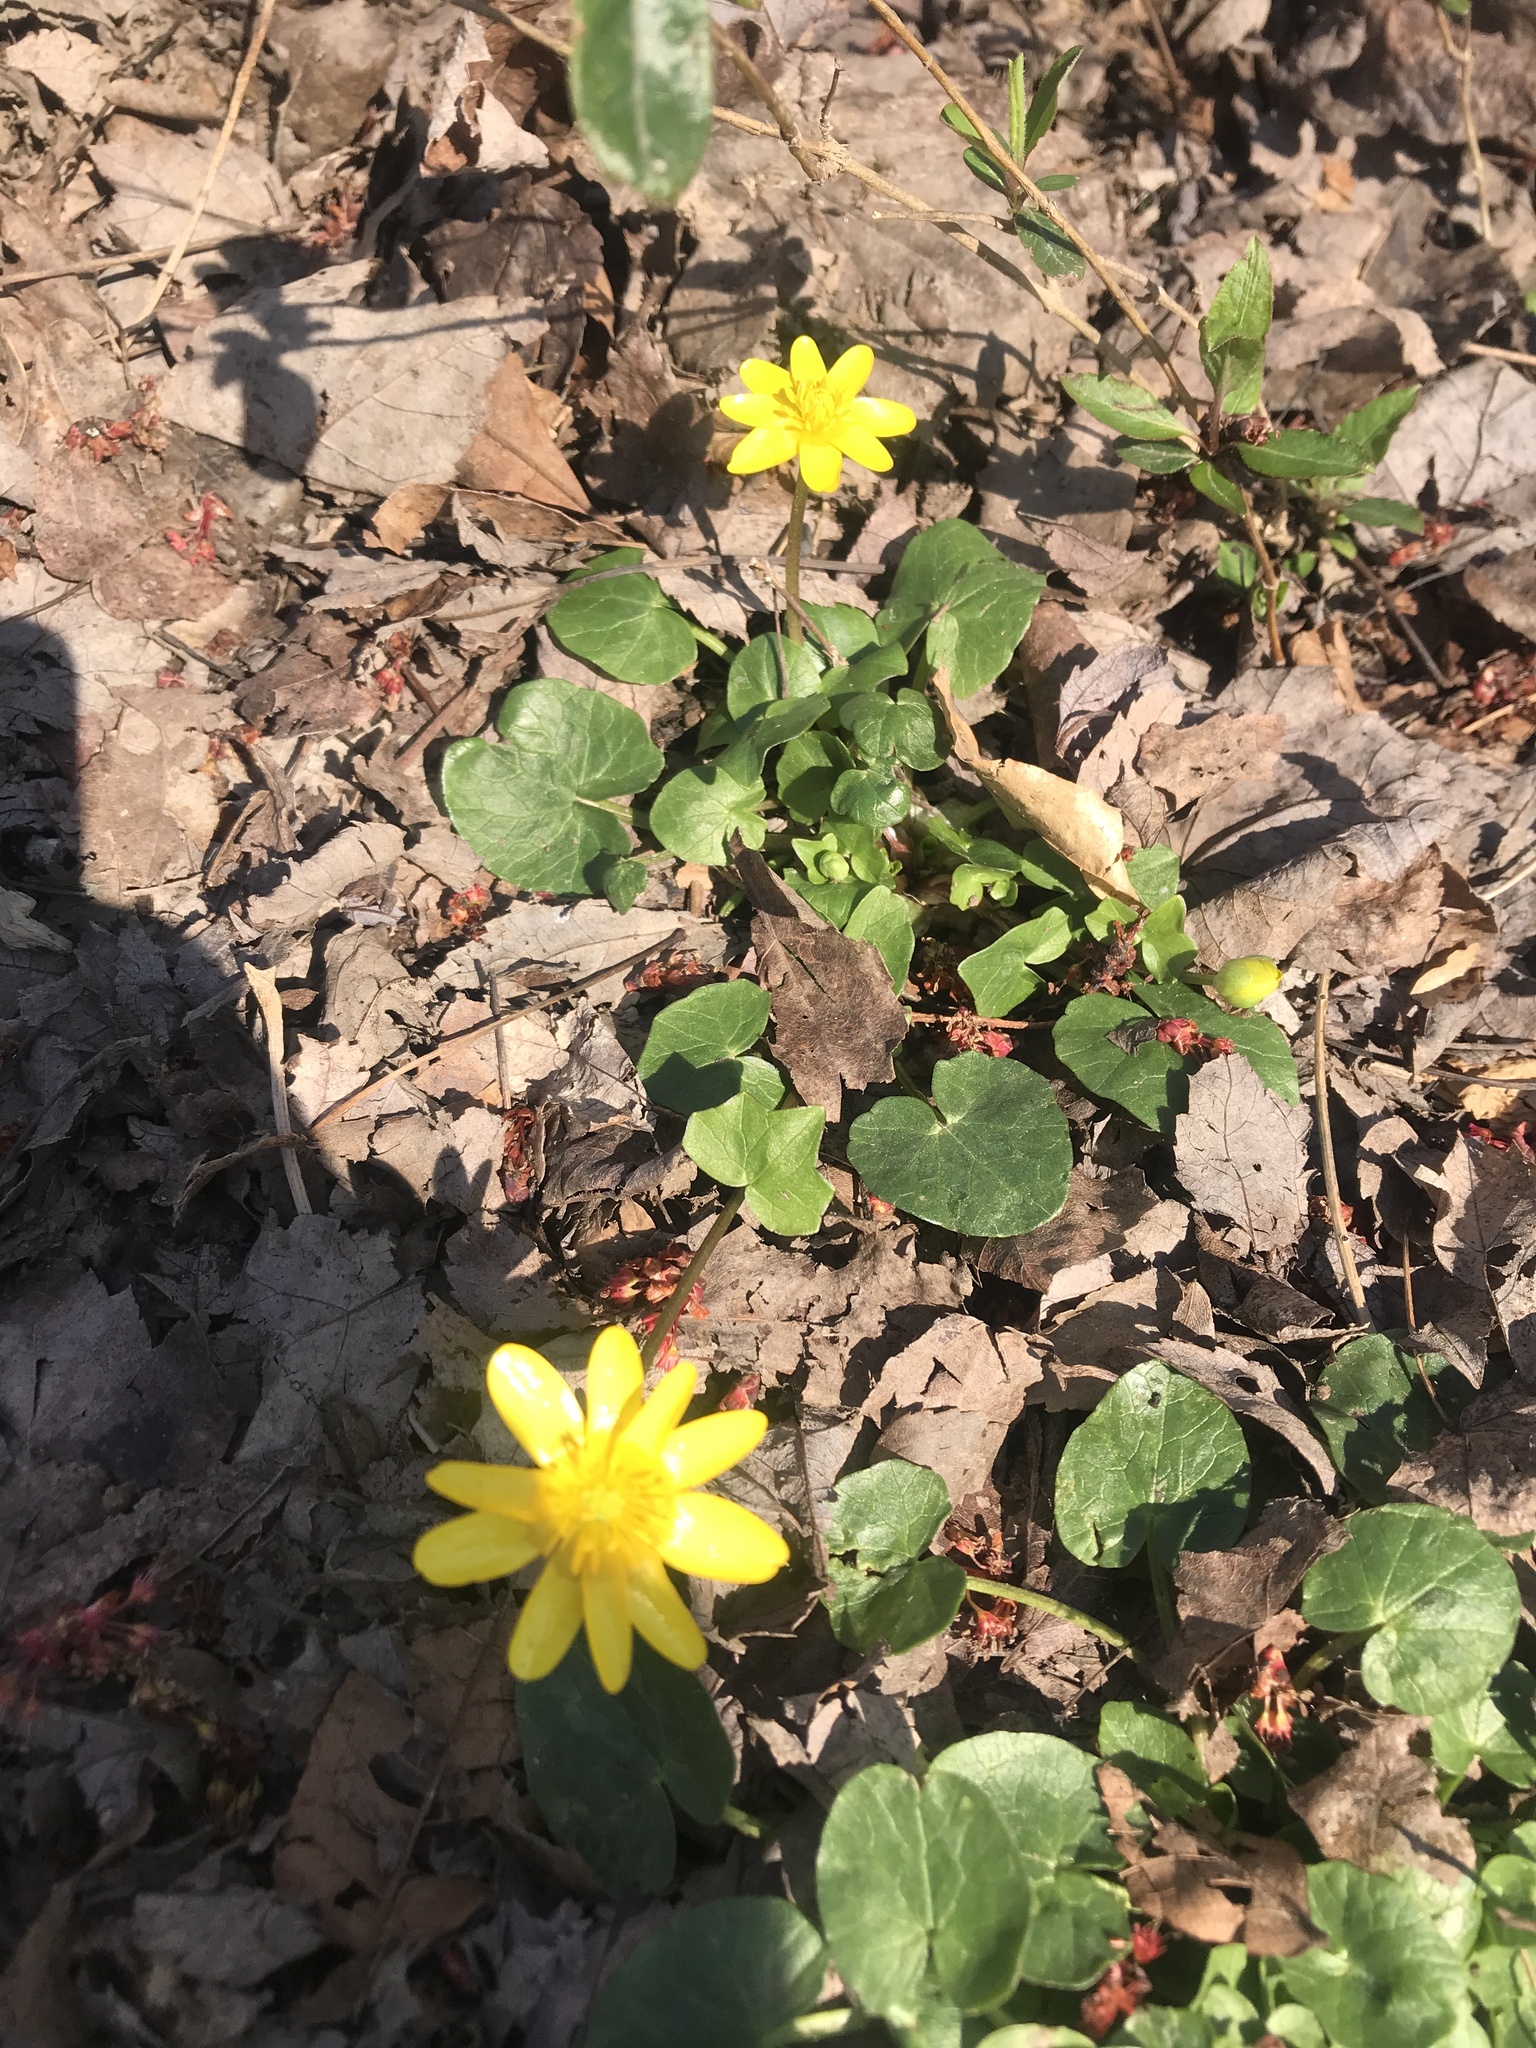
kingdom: Plantae
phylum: Tracheophyta
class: Magnoliopsida
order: Ranunculales
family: Ranunculaceae
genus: Ficaria
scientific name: Ficaria verna
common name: Lesser celandine
